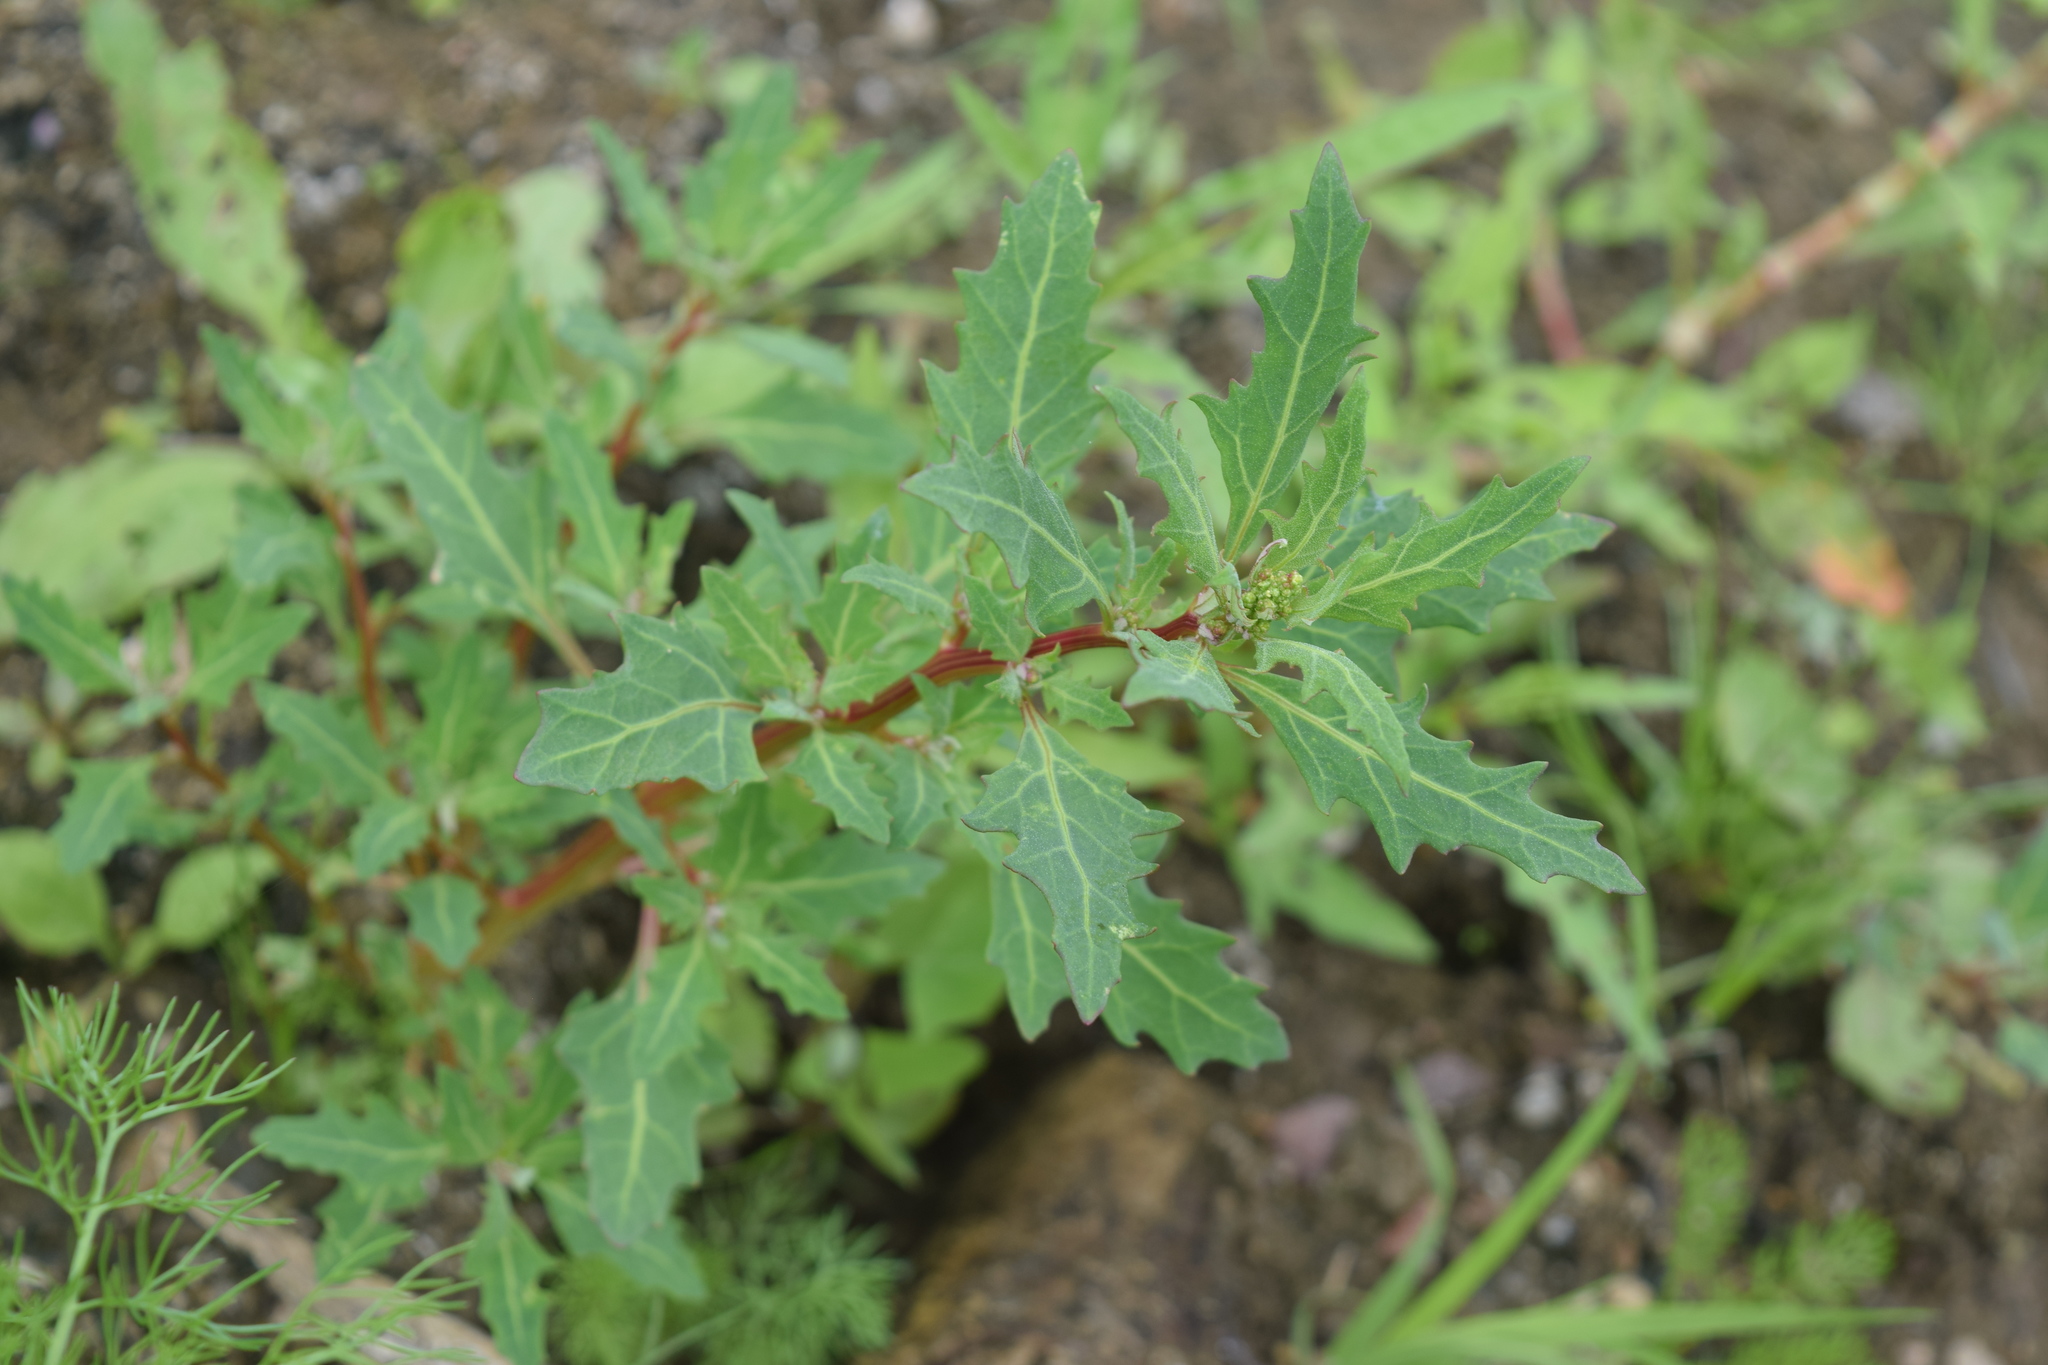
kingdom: Plantae
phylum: Tracheophyta
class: Magnoliopsida
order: Caryophyllales
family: Amaranthaceae
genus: Oxybasis
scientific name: Oxybasis glauca
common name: Glaucous goosefoot
